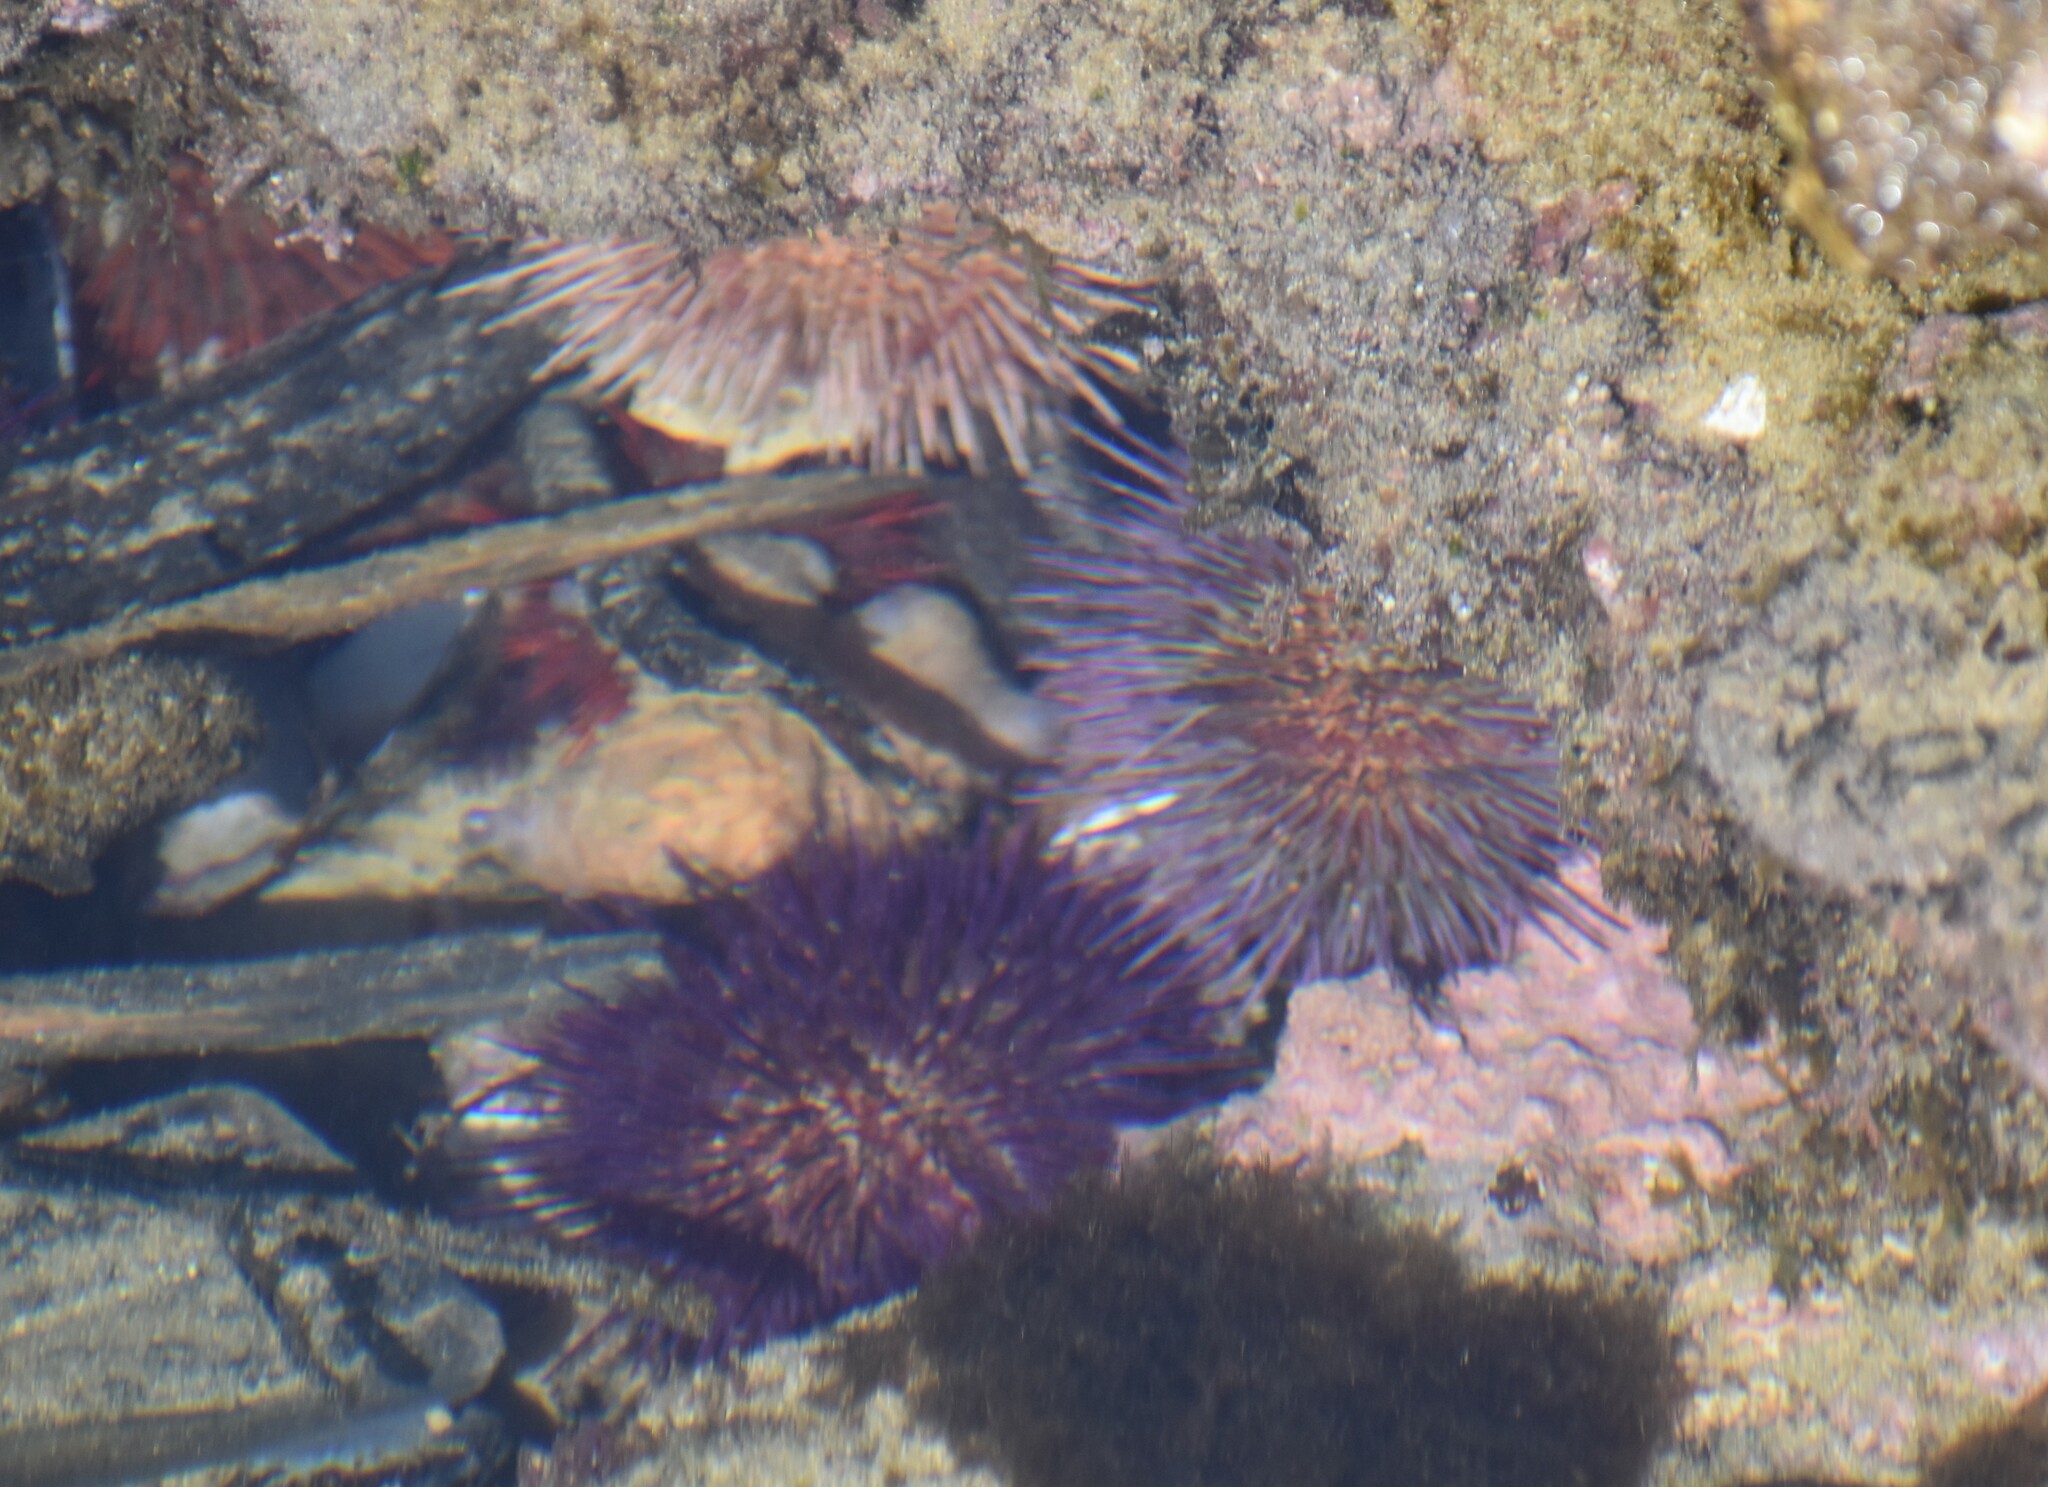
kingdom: Animalia
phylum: Echinodermata
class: Echinoidea
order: Camarodonta
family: Parechinidae
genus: Parechinus
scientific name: Parechinus angulosus
